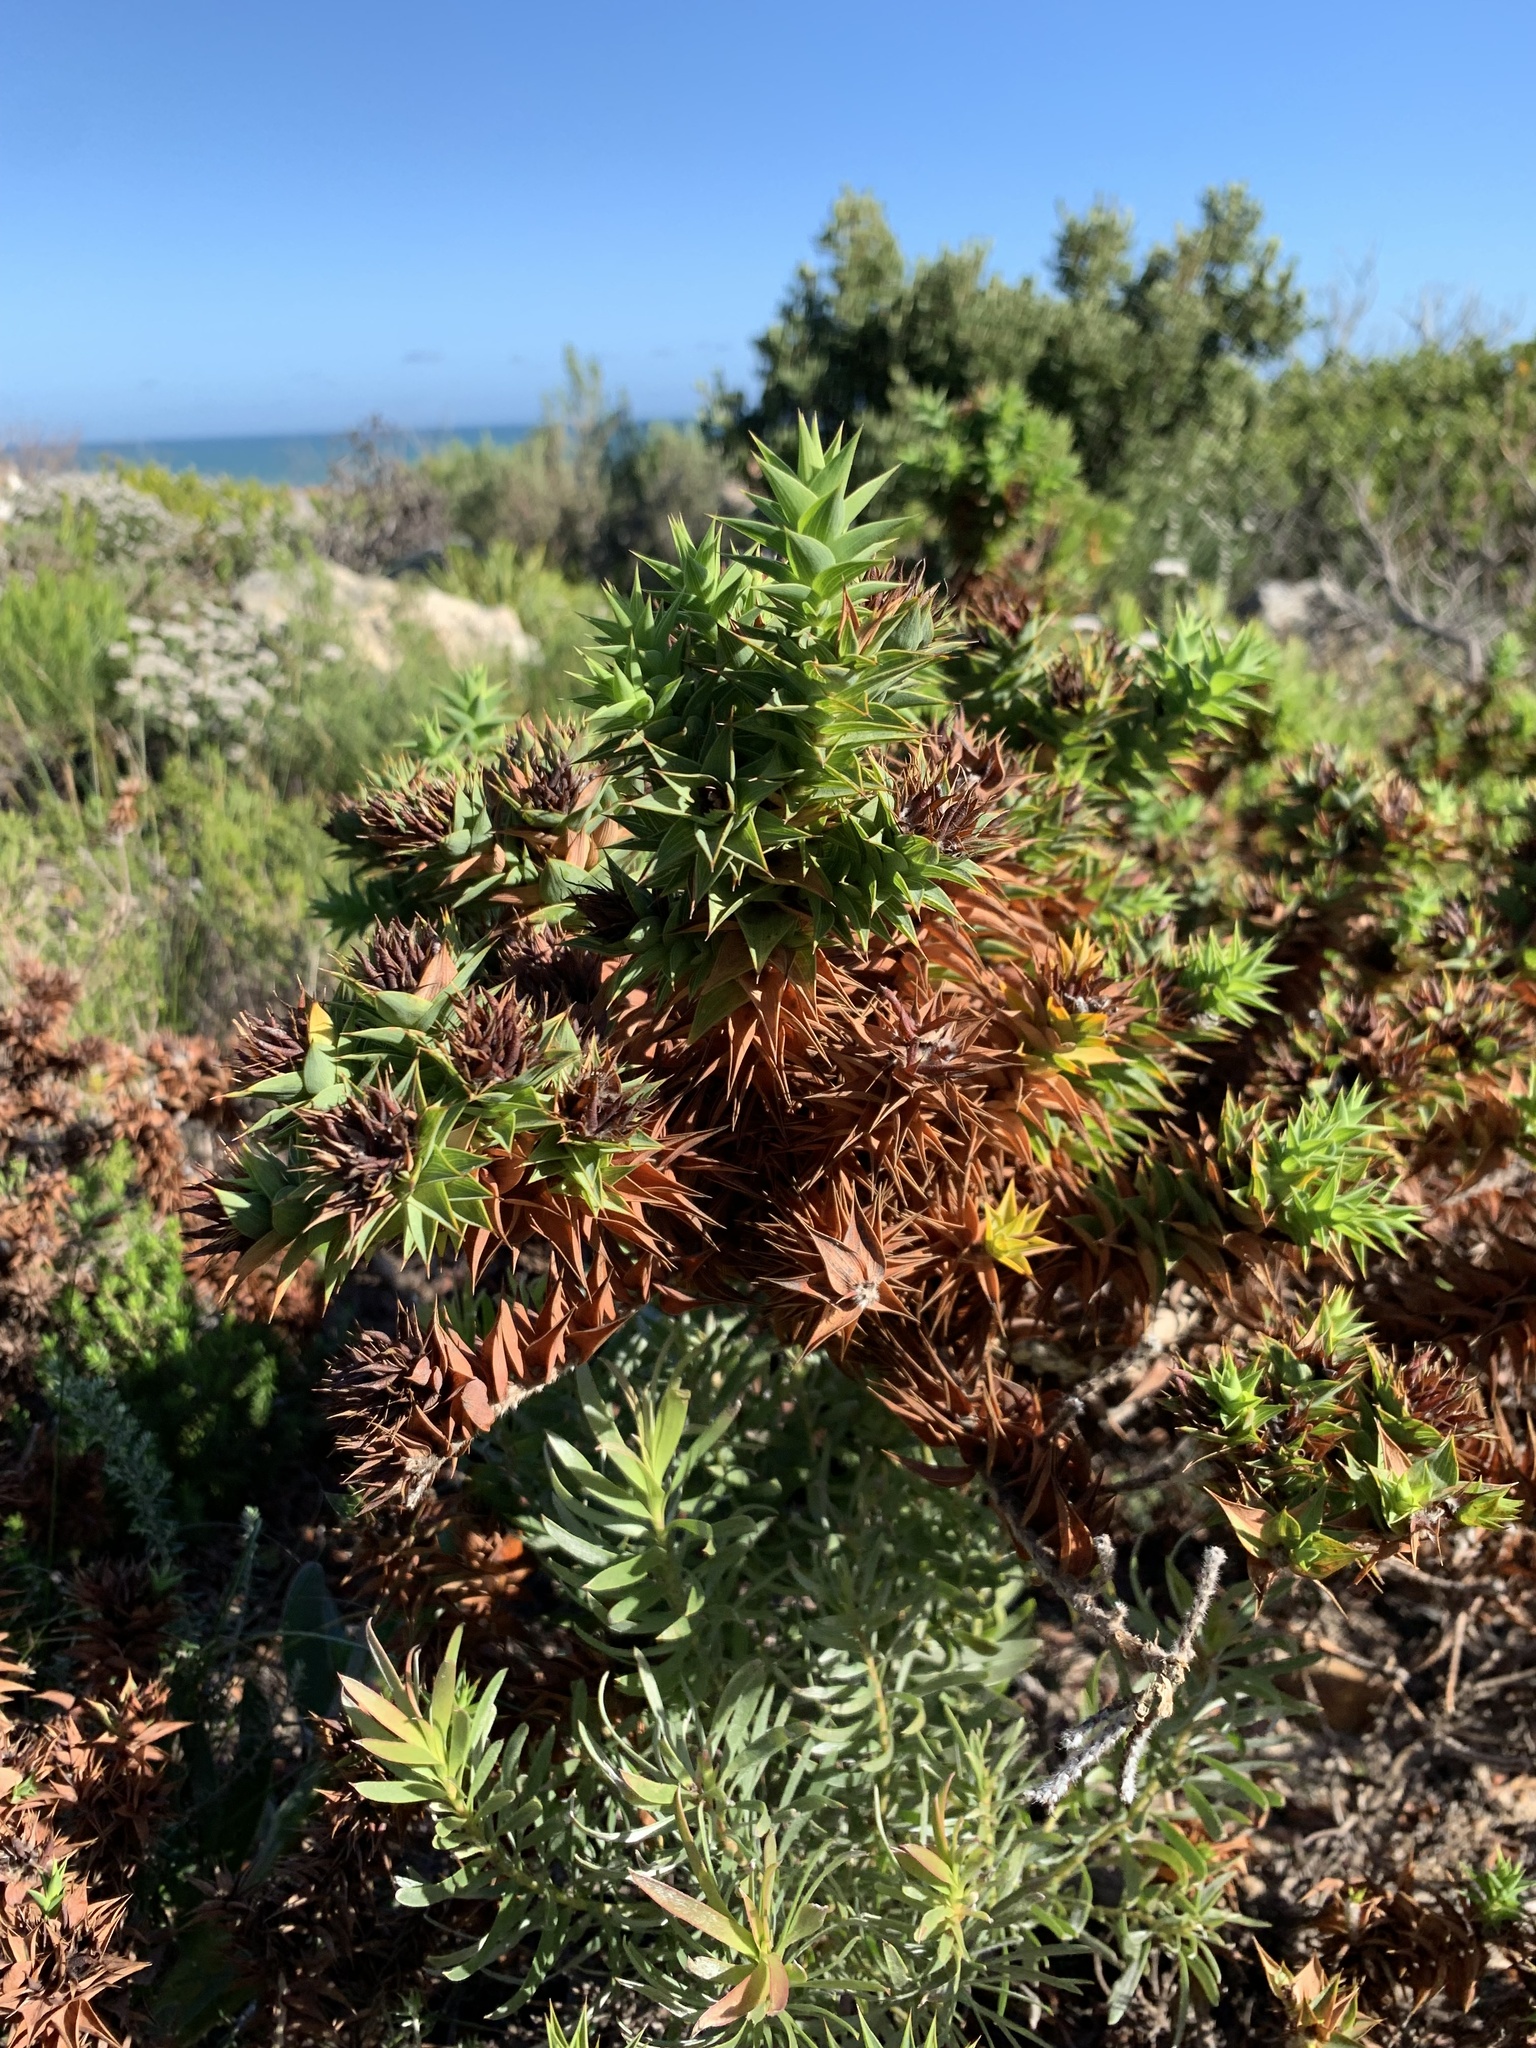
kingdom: Plantae
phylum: Tracheophyta
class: Magnoliopsida
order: Fabales
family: Fabaceae
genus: Aspalathus
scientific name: Aspalathus cordata
